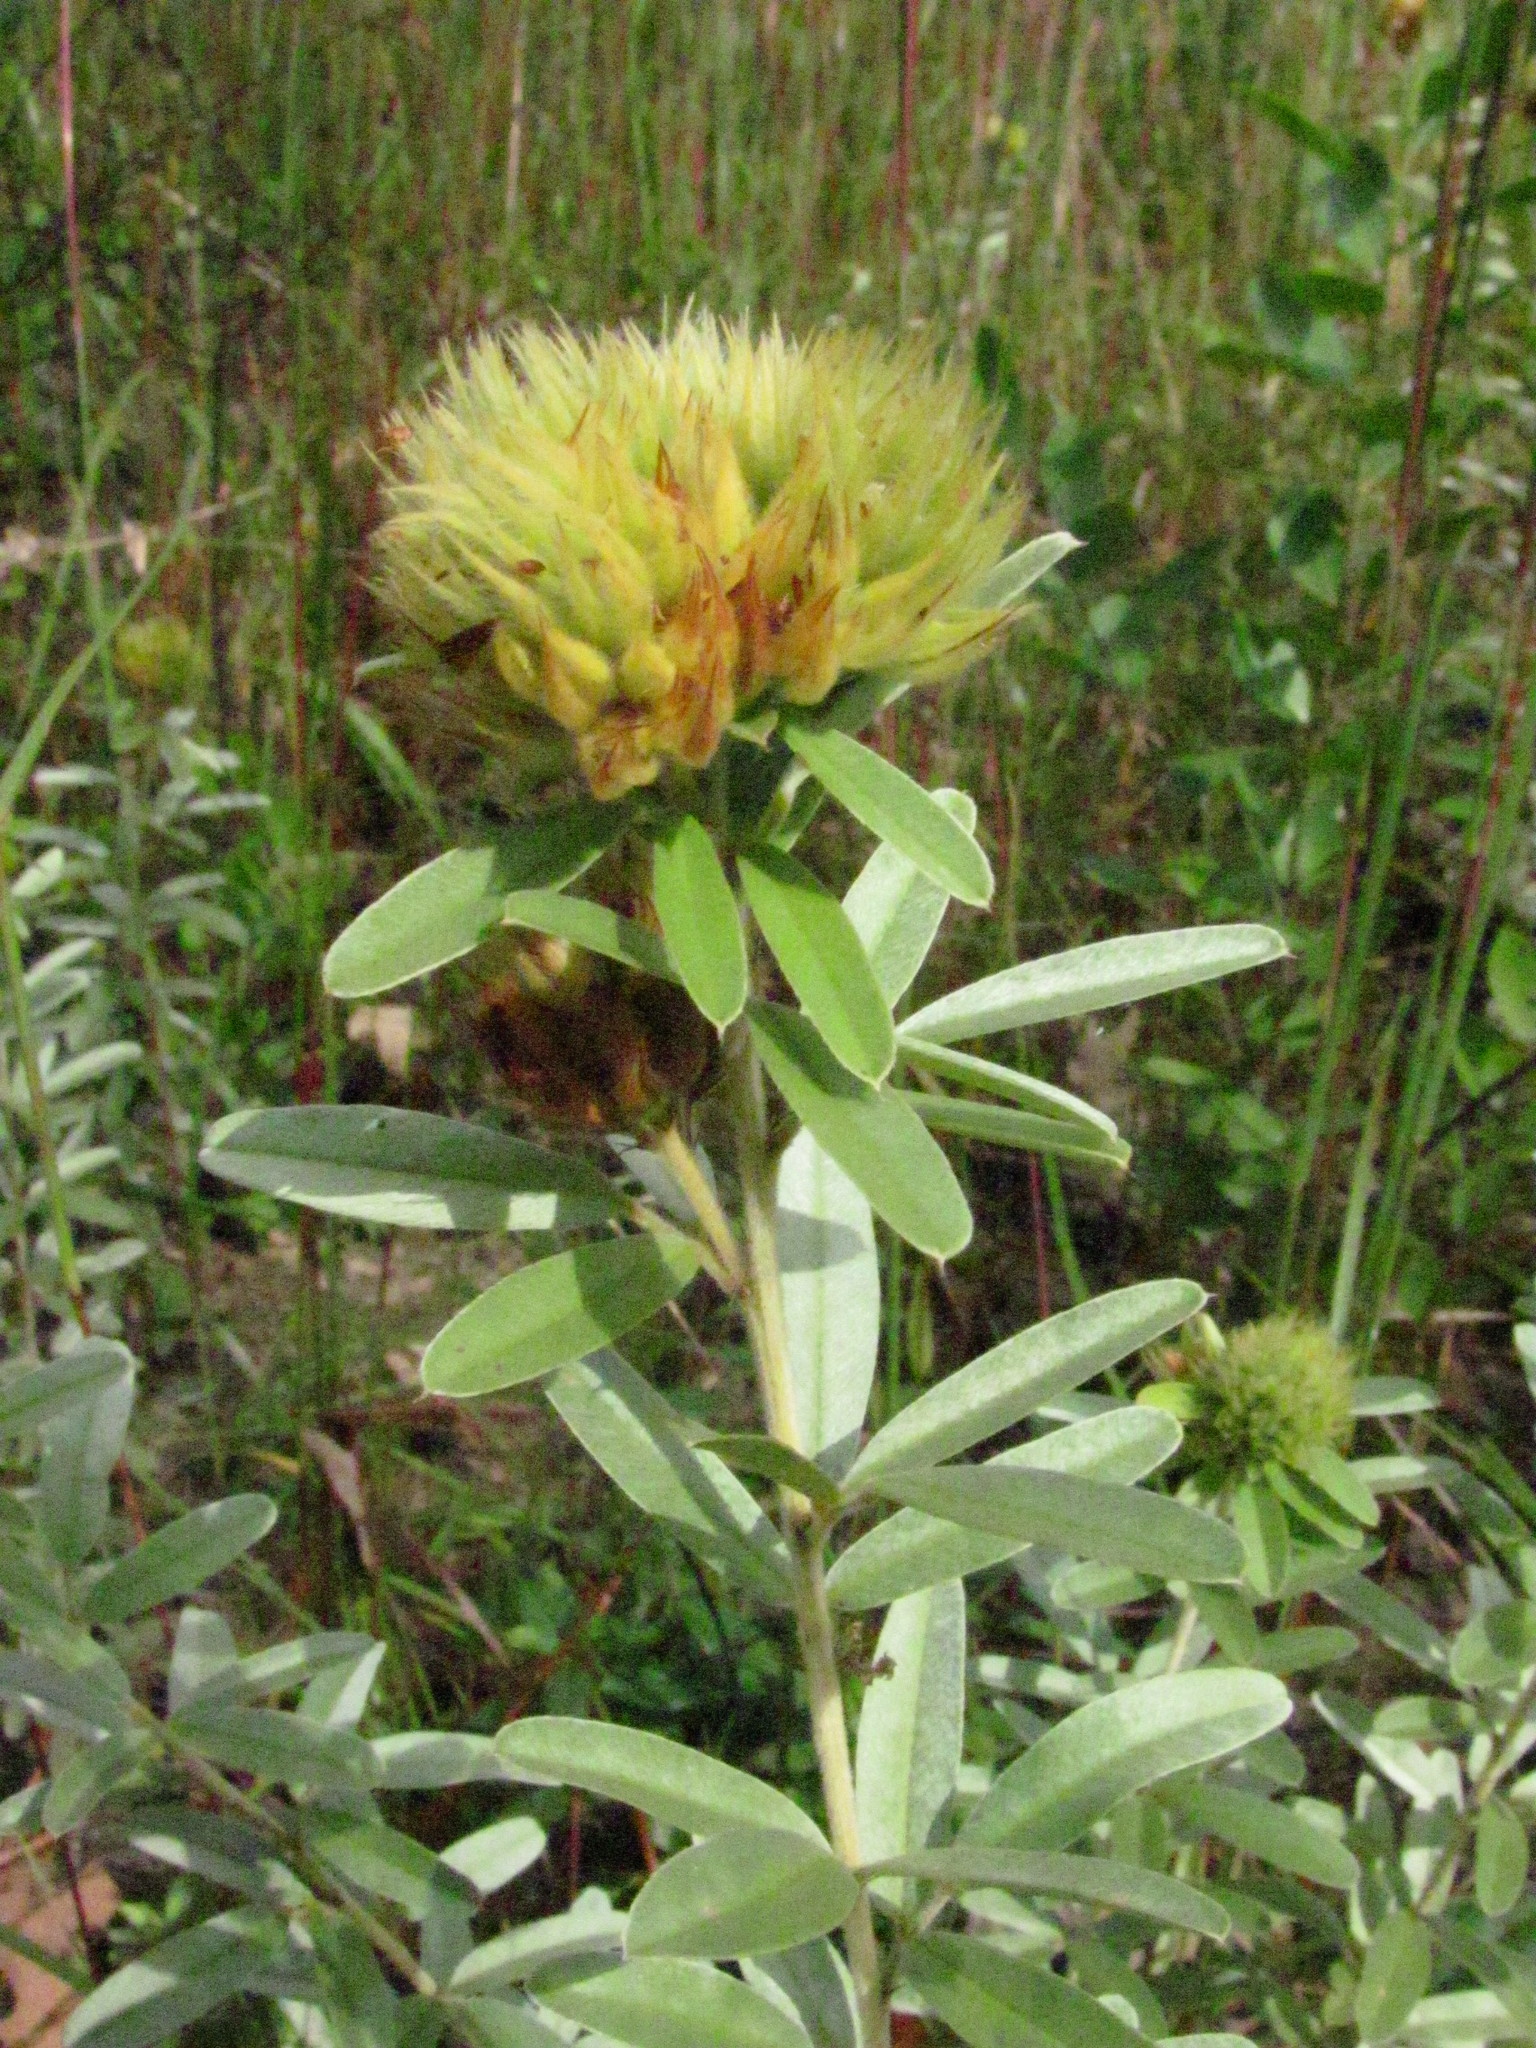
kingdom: Plantae
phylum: Tracheophyta
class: Magnoliopsida
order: Fabales
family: Fabaceae
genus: Lespedeza
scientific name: Lespedeza capitata
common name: Dusty clover
